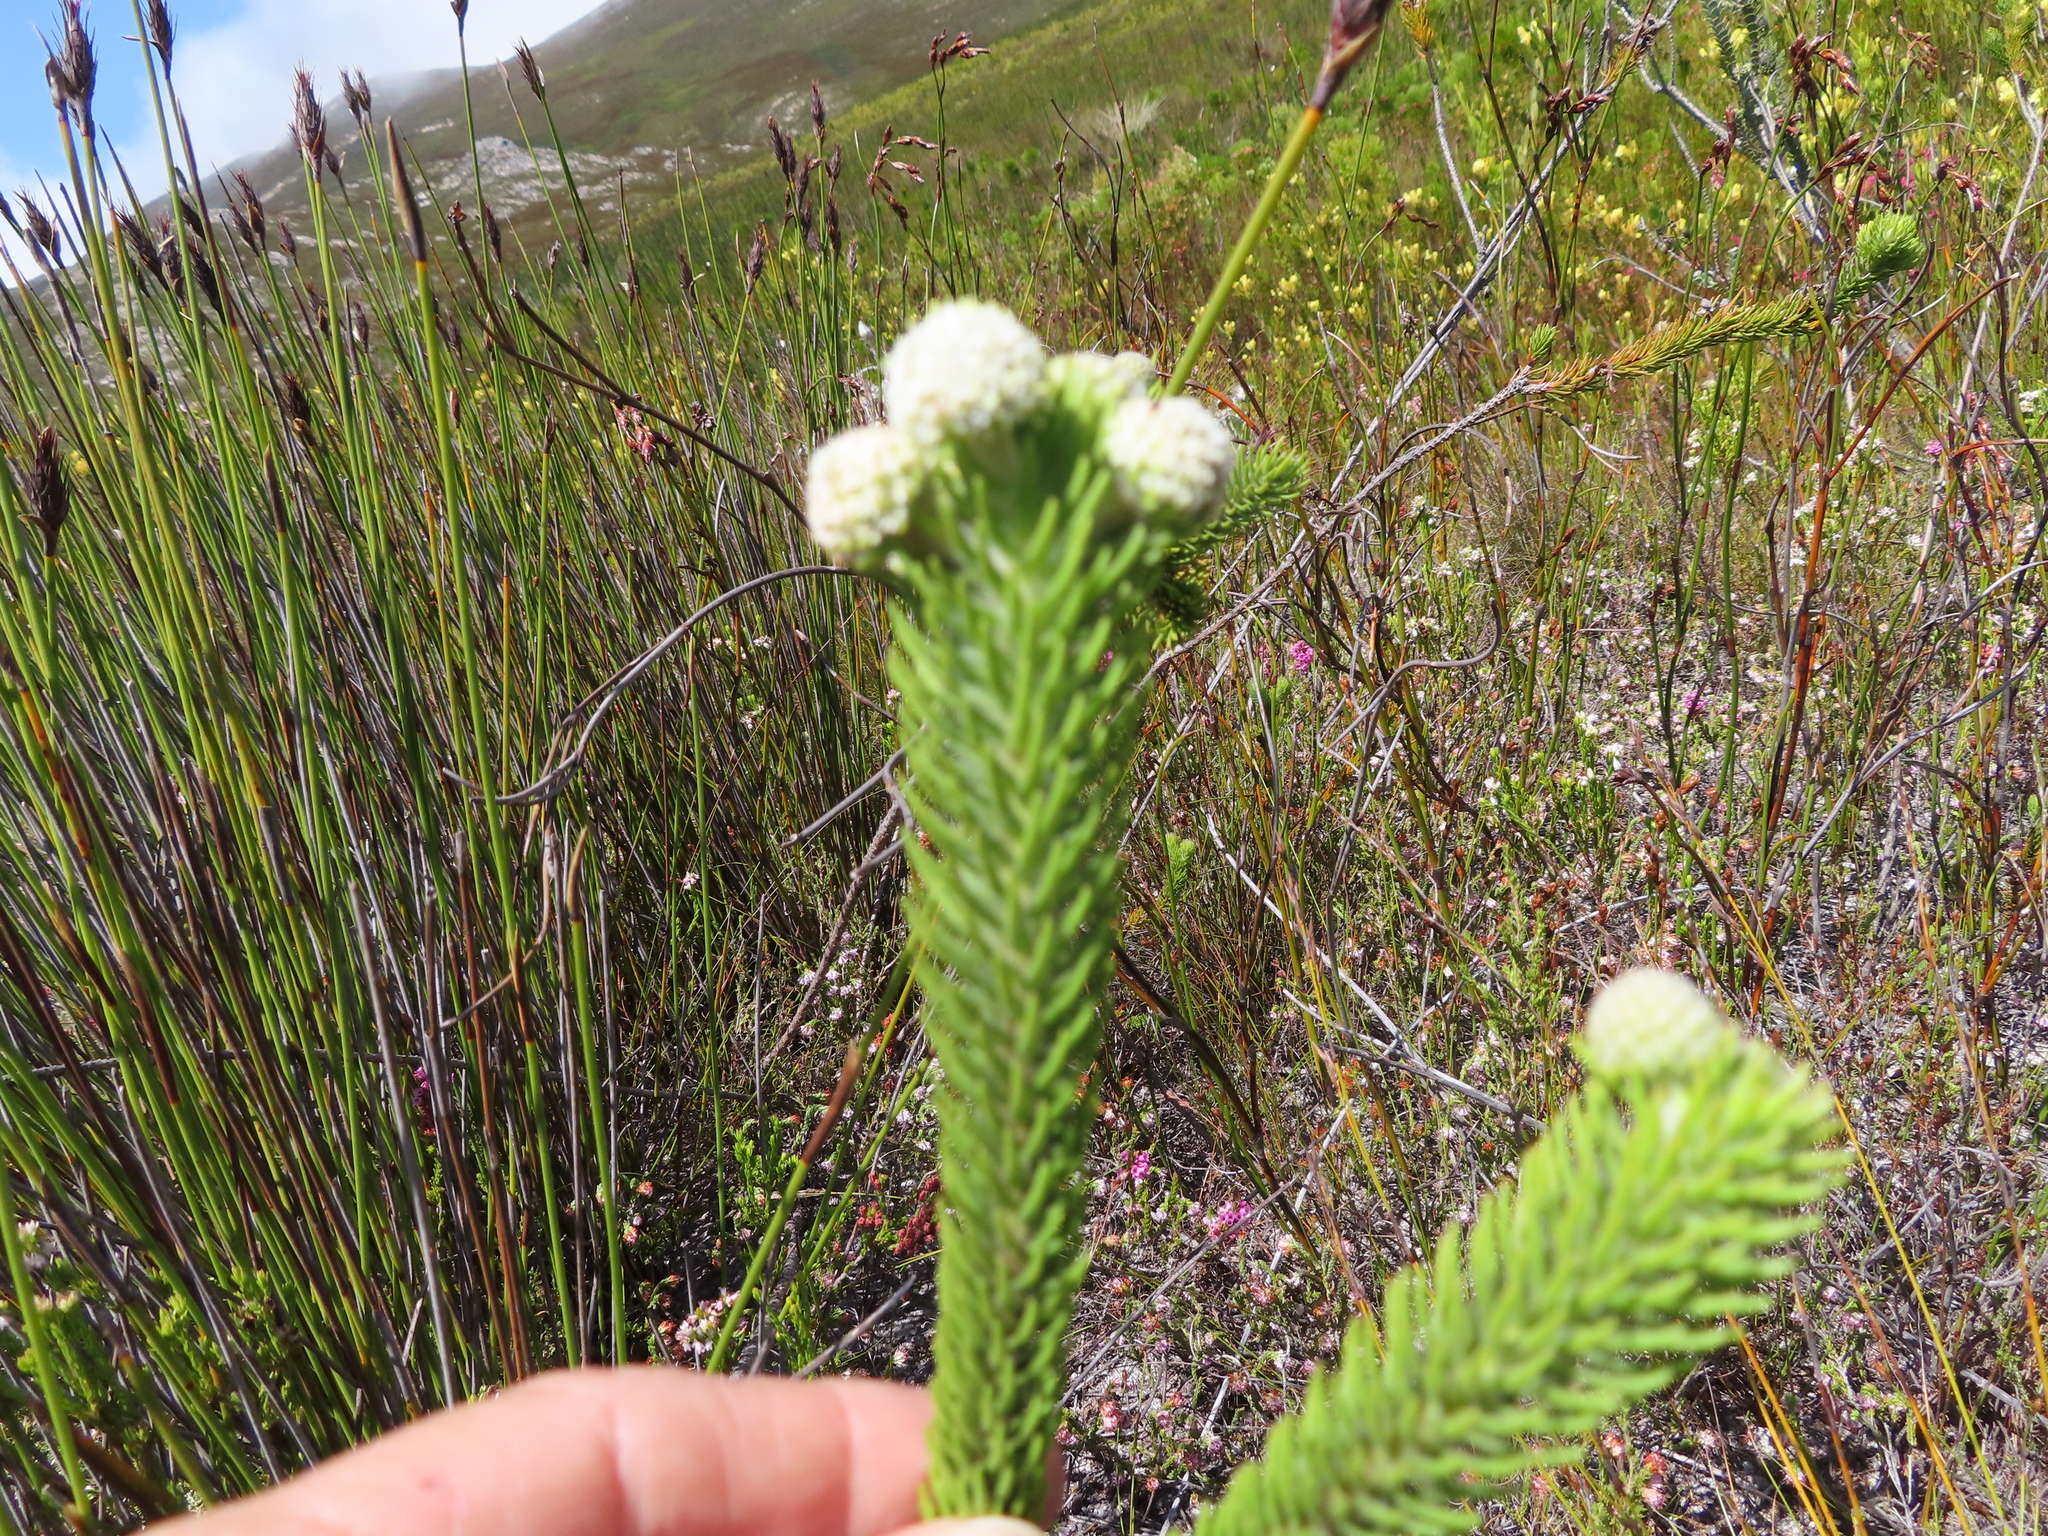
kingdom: Plantae
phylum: Tracheophyta
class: Magnoliopsida
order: Bruniales
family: Bruniaceae
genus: Berzelia
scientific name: Berzelia rubra
